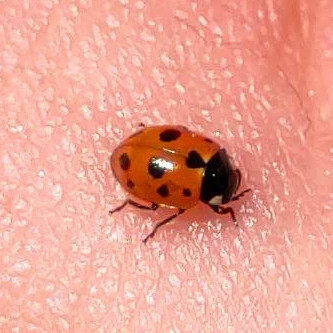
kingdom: Animalia
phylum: Arthropoda
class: Insecta
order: Coleoptera
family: Coccinellidae
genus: Coccinella
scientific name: Coccinella undecimpunctata
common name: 11-spot ladybird
